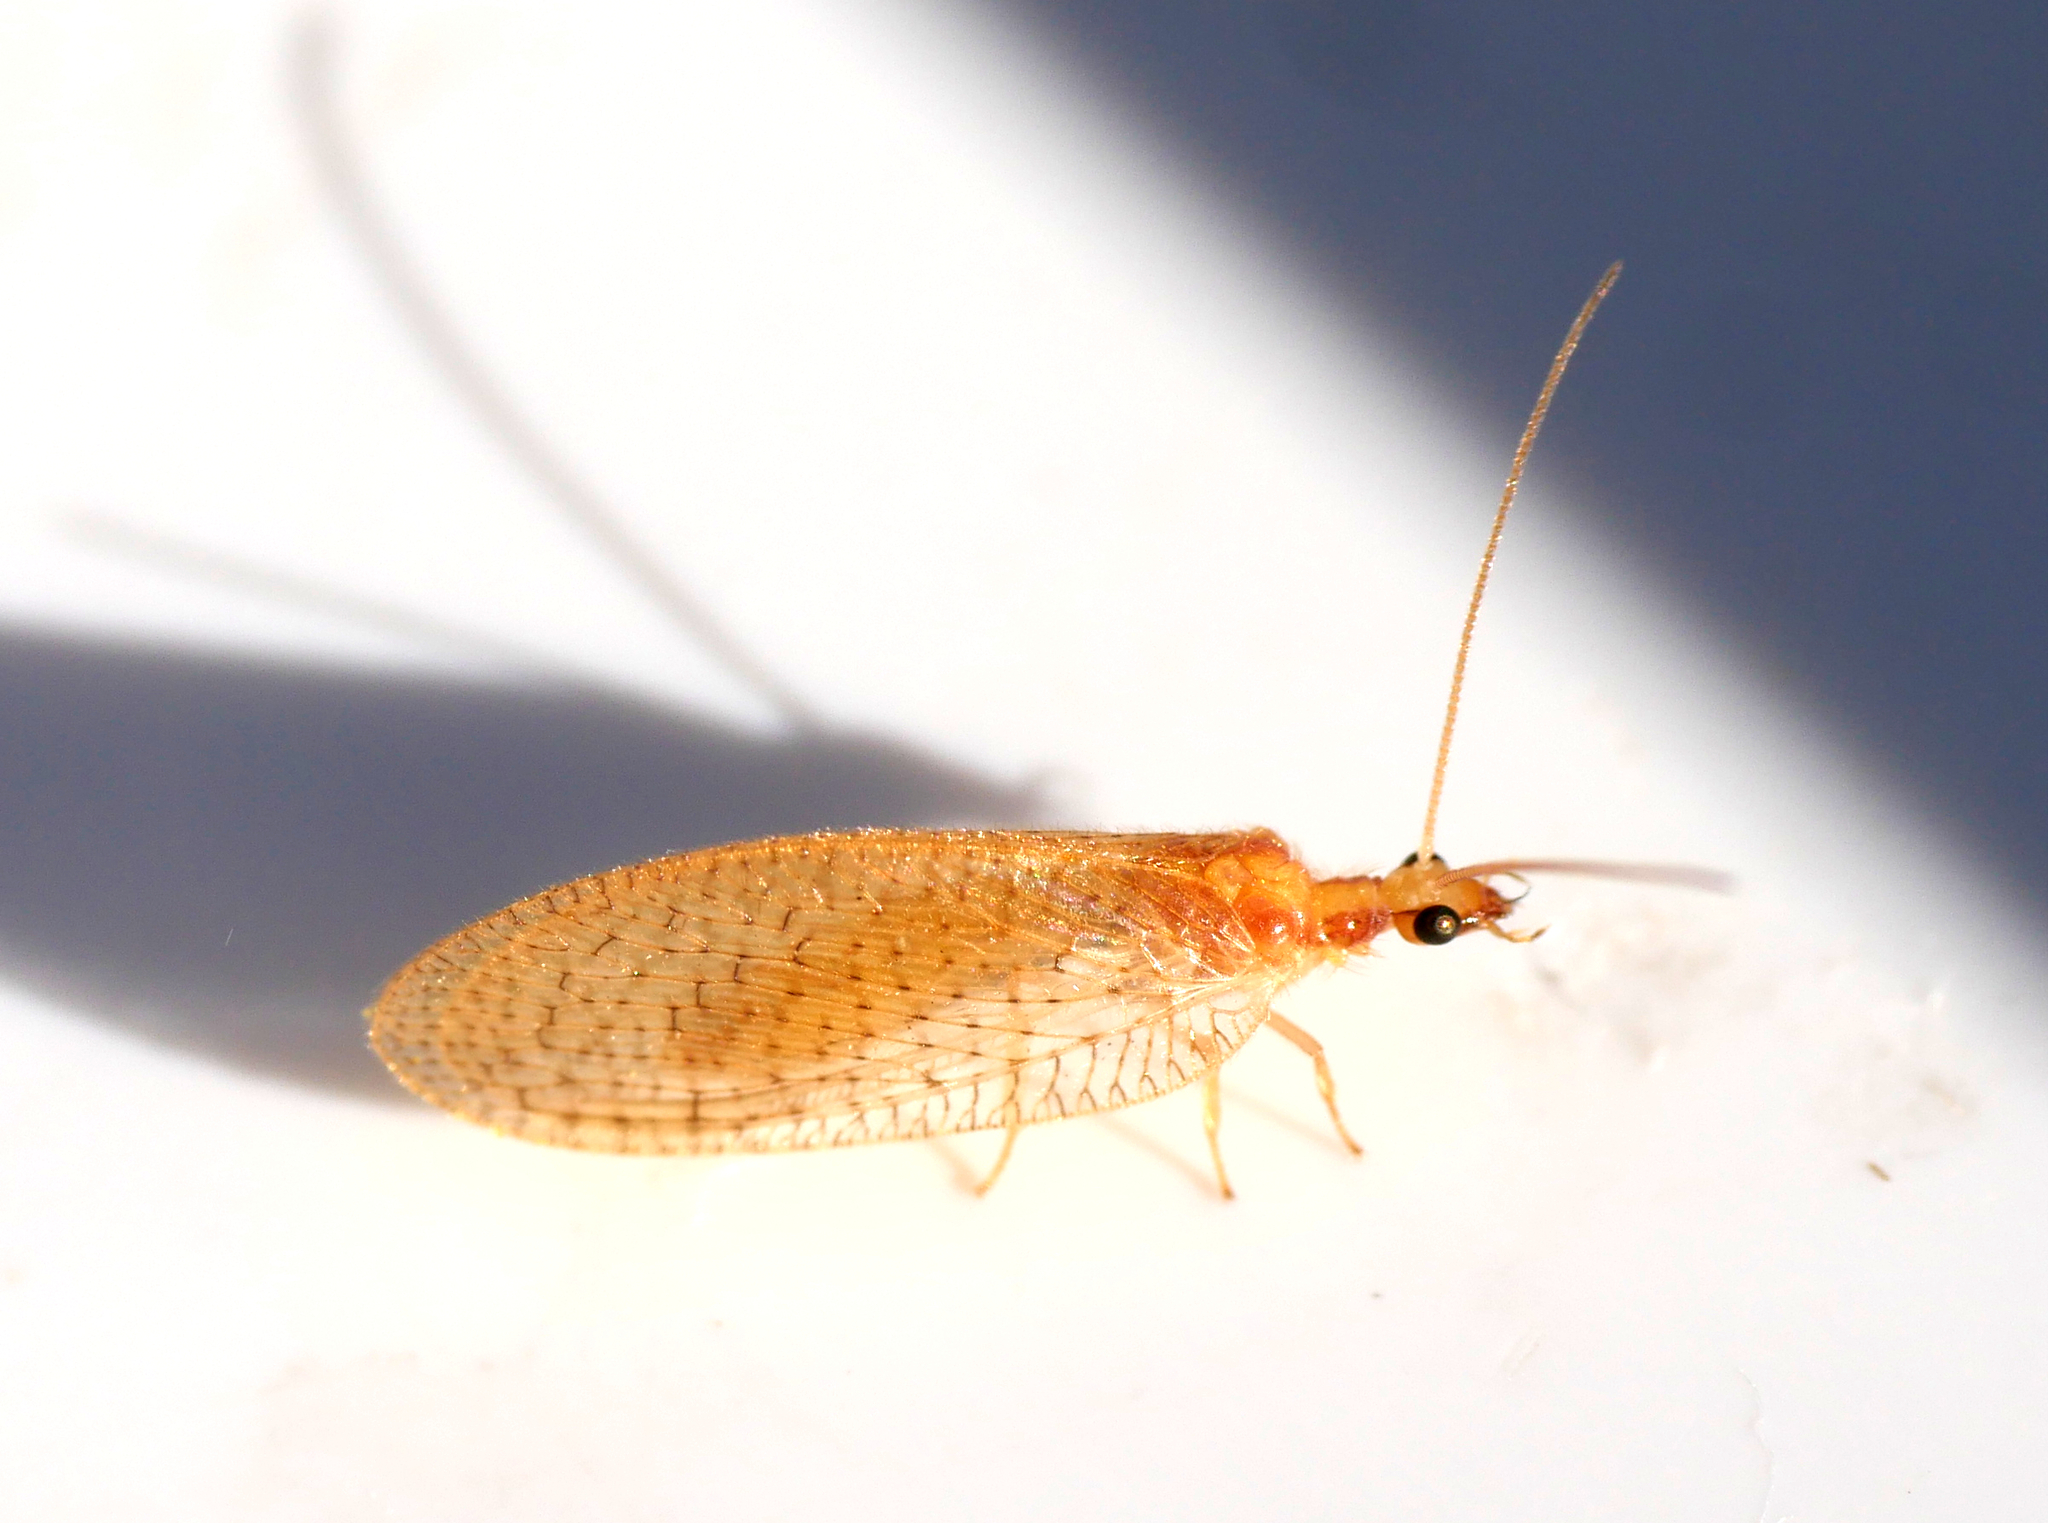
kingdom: Animalia
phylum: Arthropoda
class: Insecta
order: Neuroptera
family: Hemerobiidae
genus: Hemerobius
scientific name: Hemerobius micans
